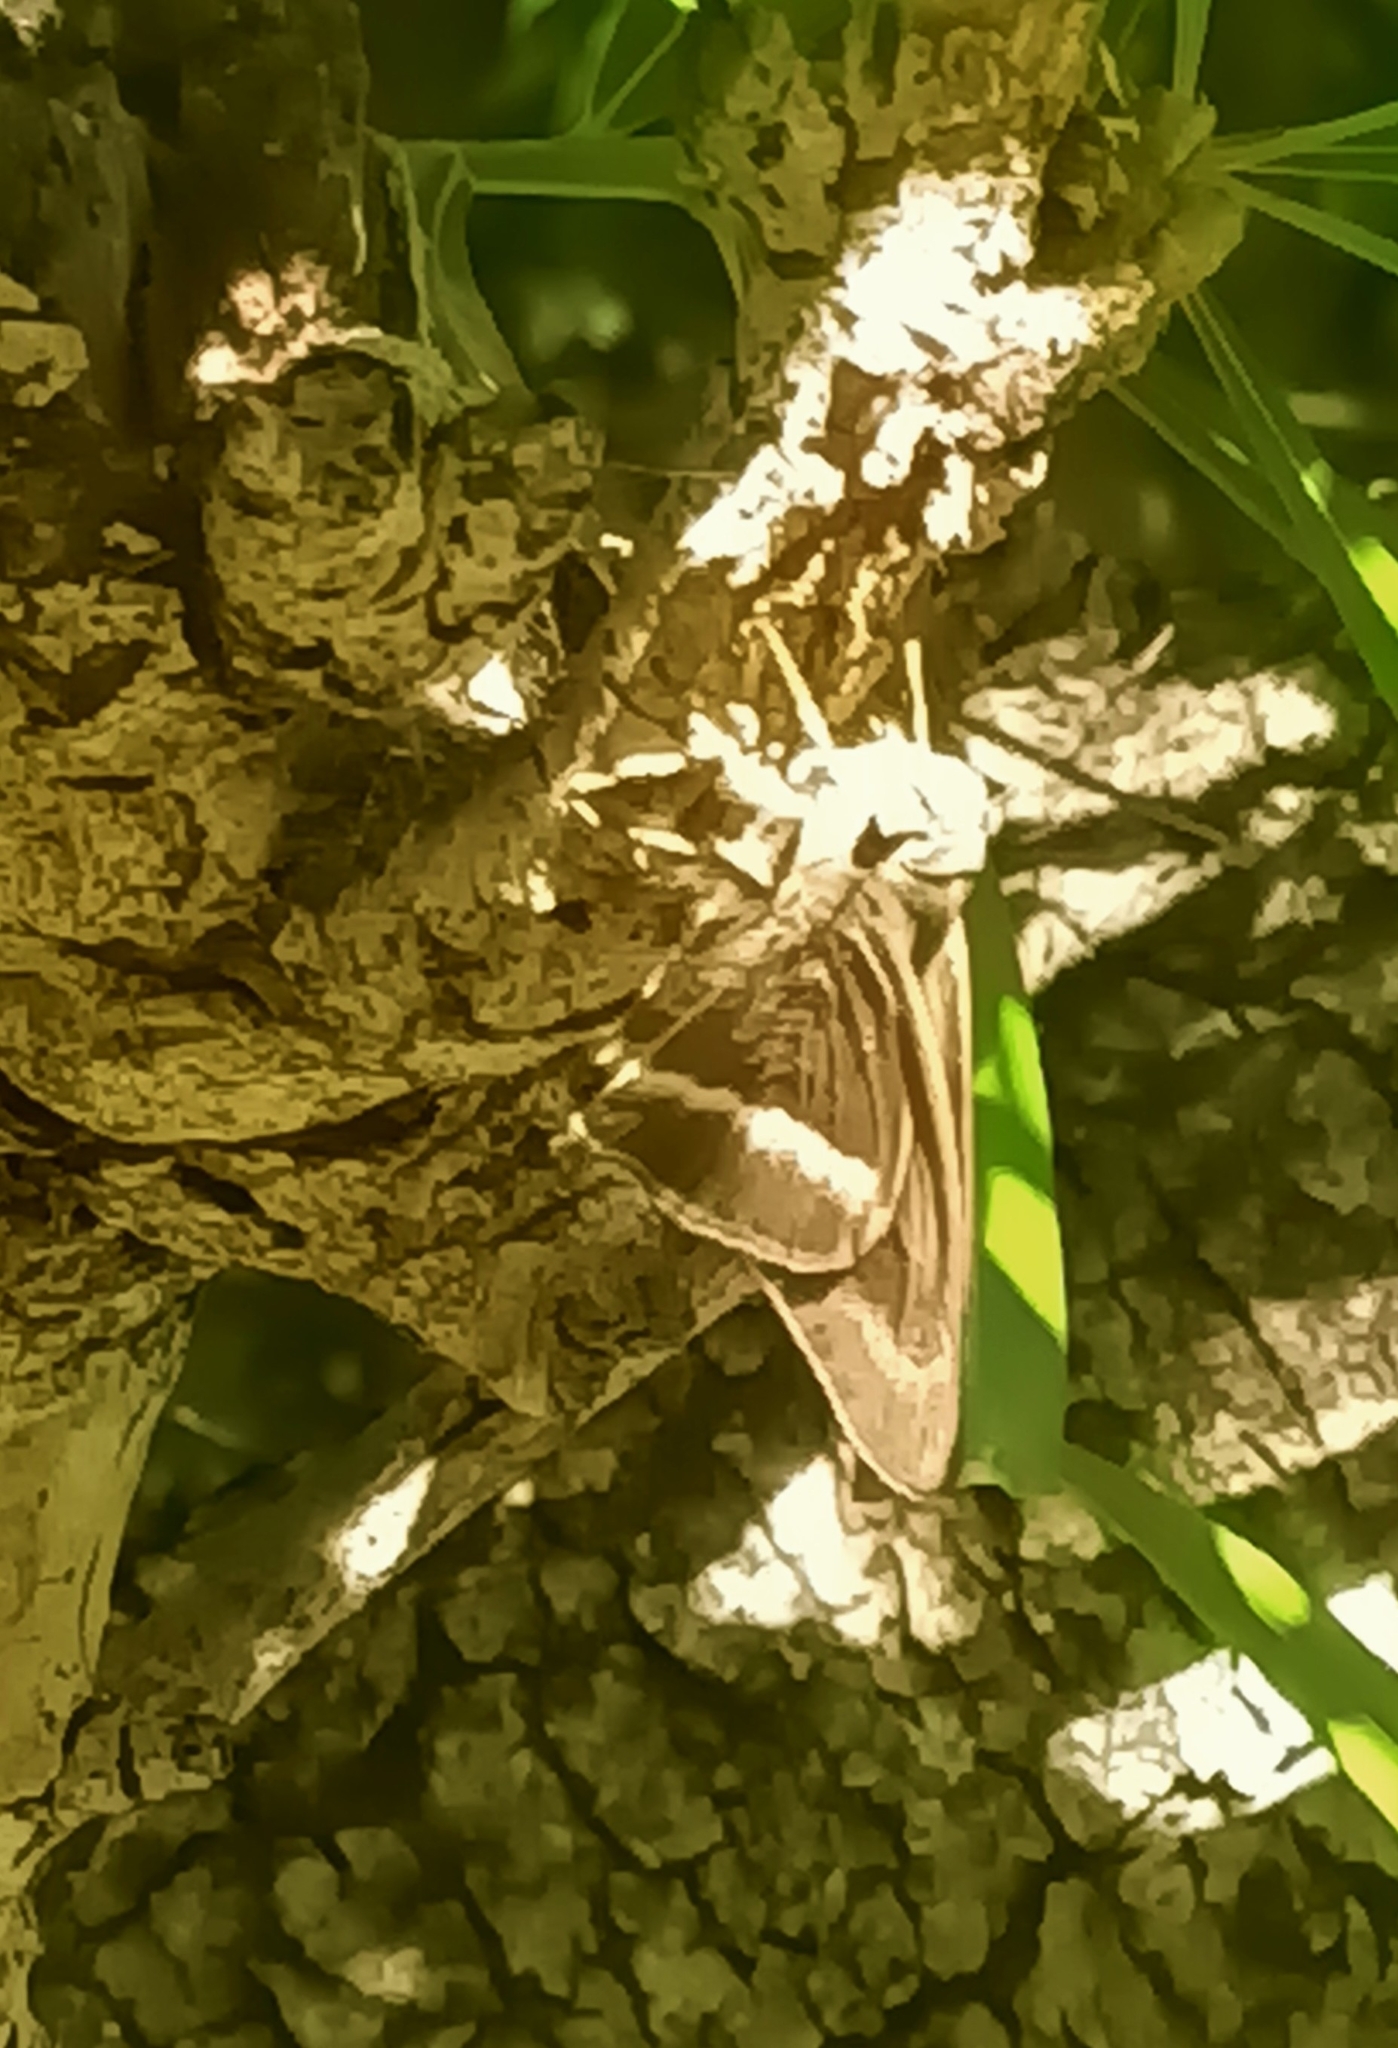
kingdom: Animalia
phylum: Arthropoda
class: Insecta
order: Lepidoptera
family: Hesperiidae
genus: Hasora
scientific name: Hasora chromus
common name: Common banded awl
